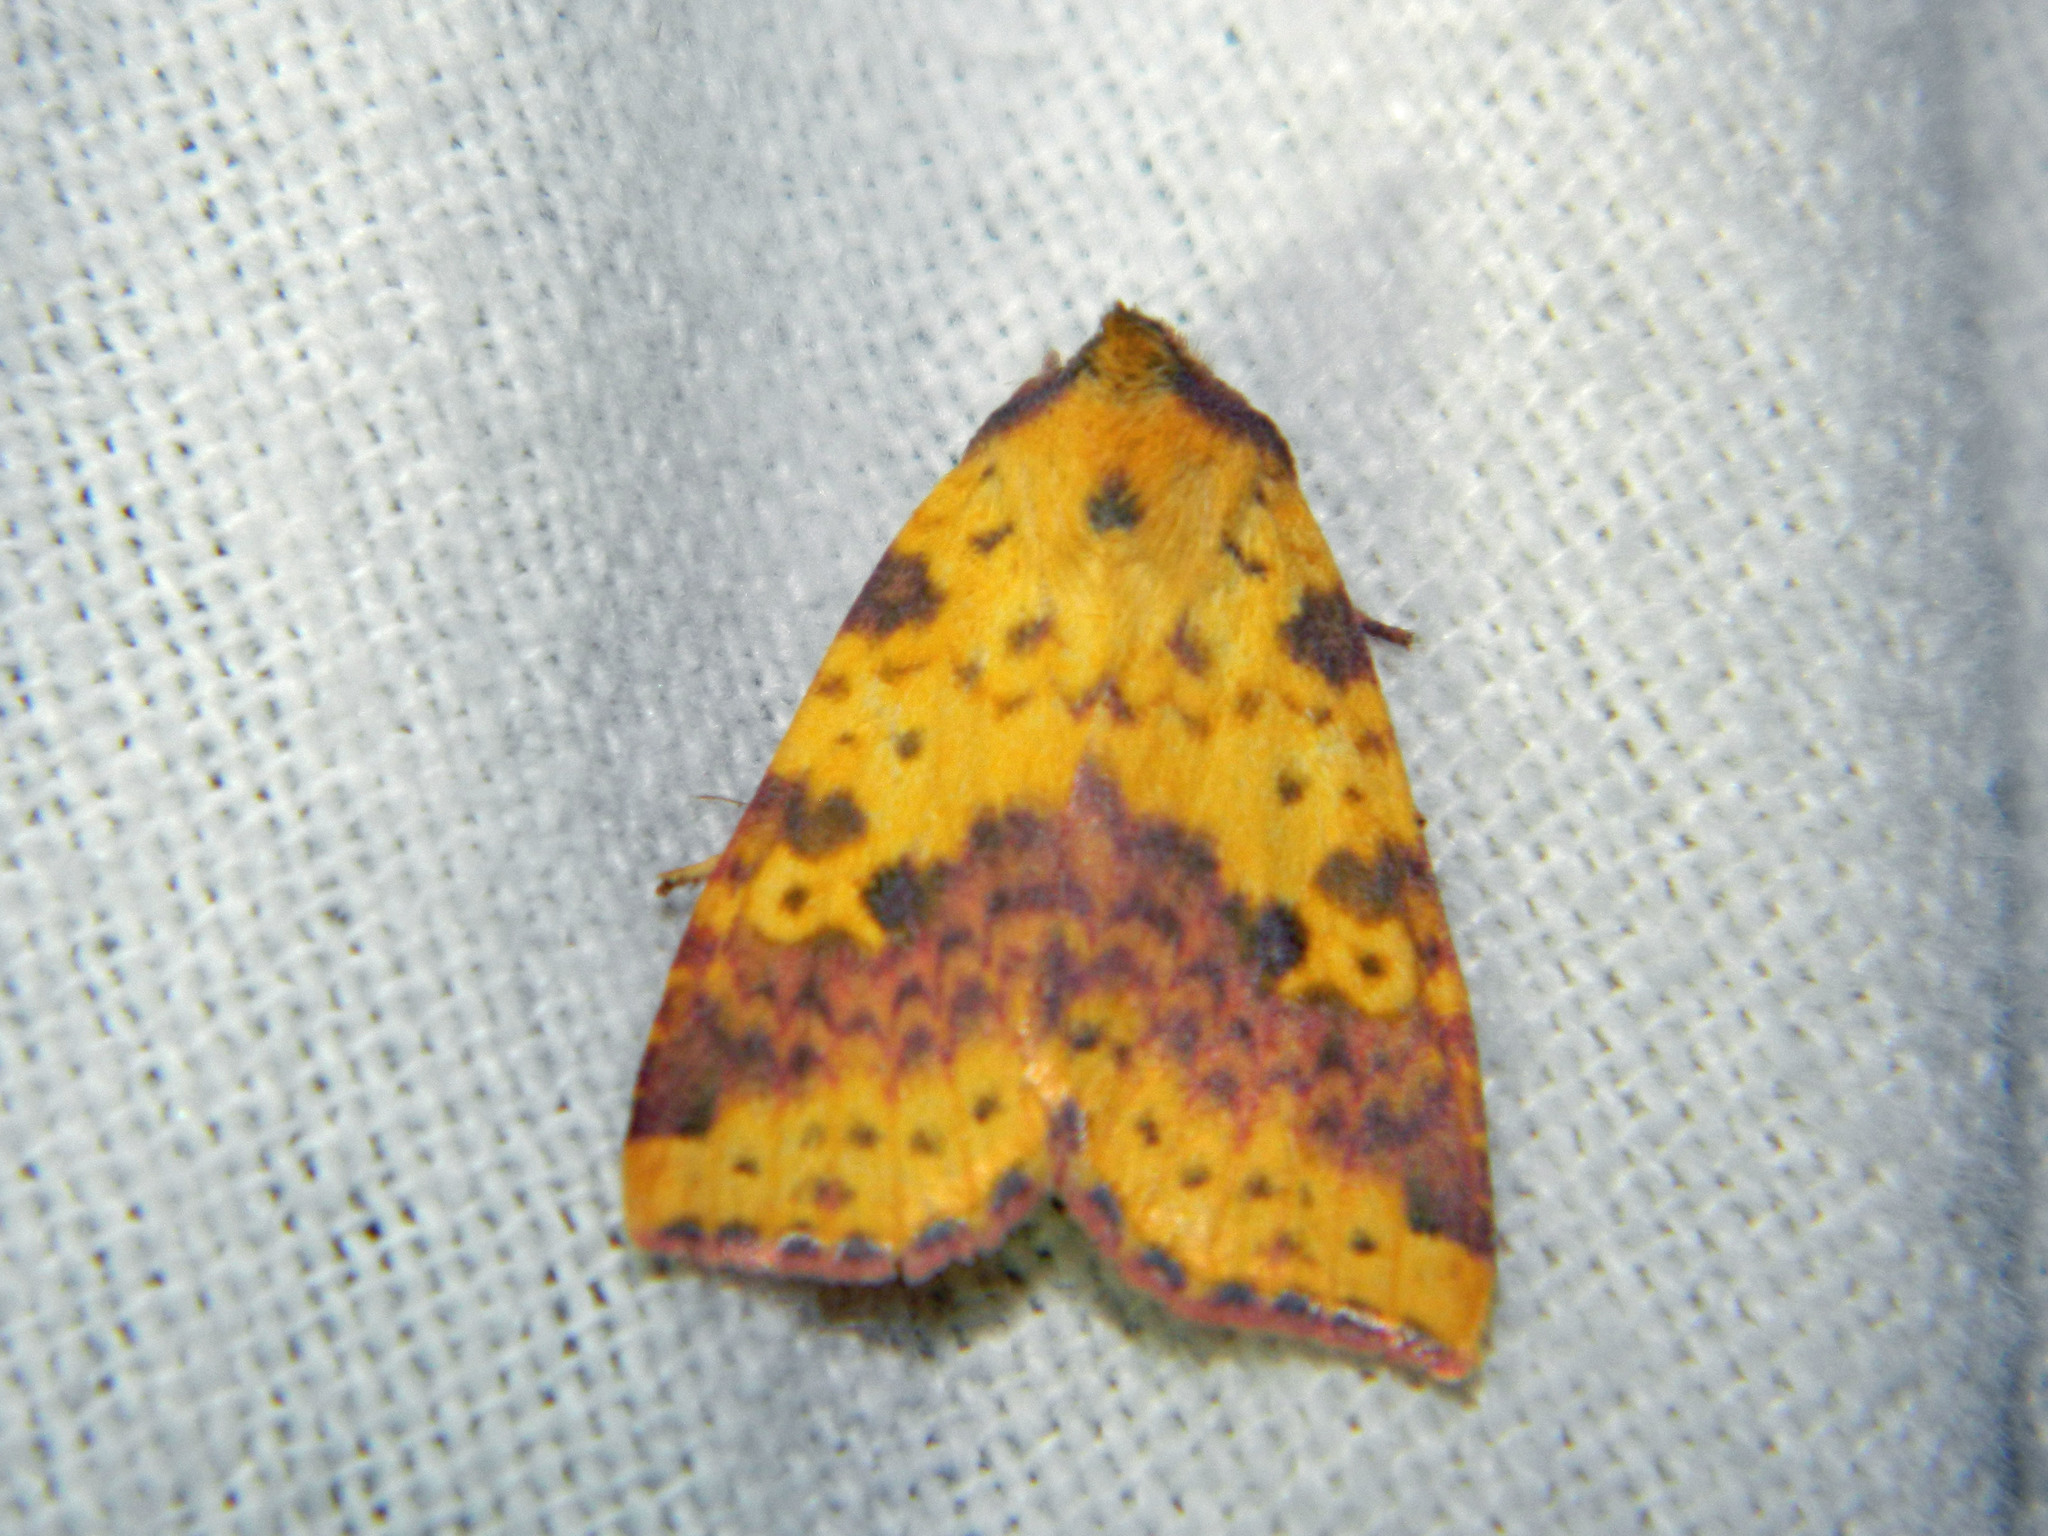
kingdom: Animalia
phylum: Arthropoda
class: Insecta
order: Lepidoptera
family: Noctuidae
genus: Xanthia
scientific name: Xanthia tatago
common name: Pink-banded sallow
